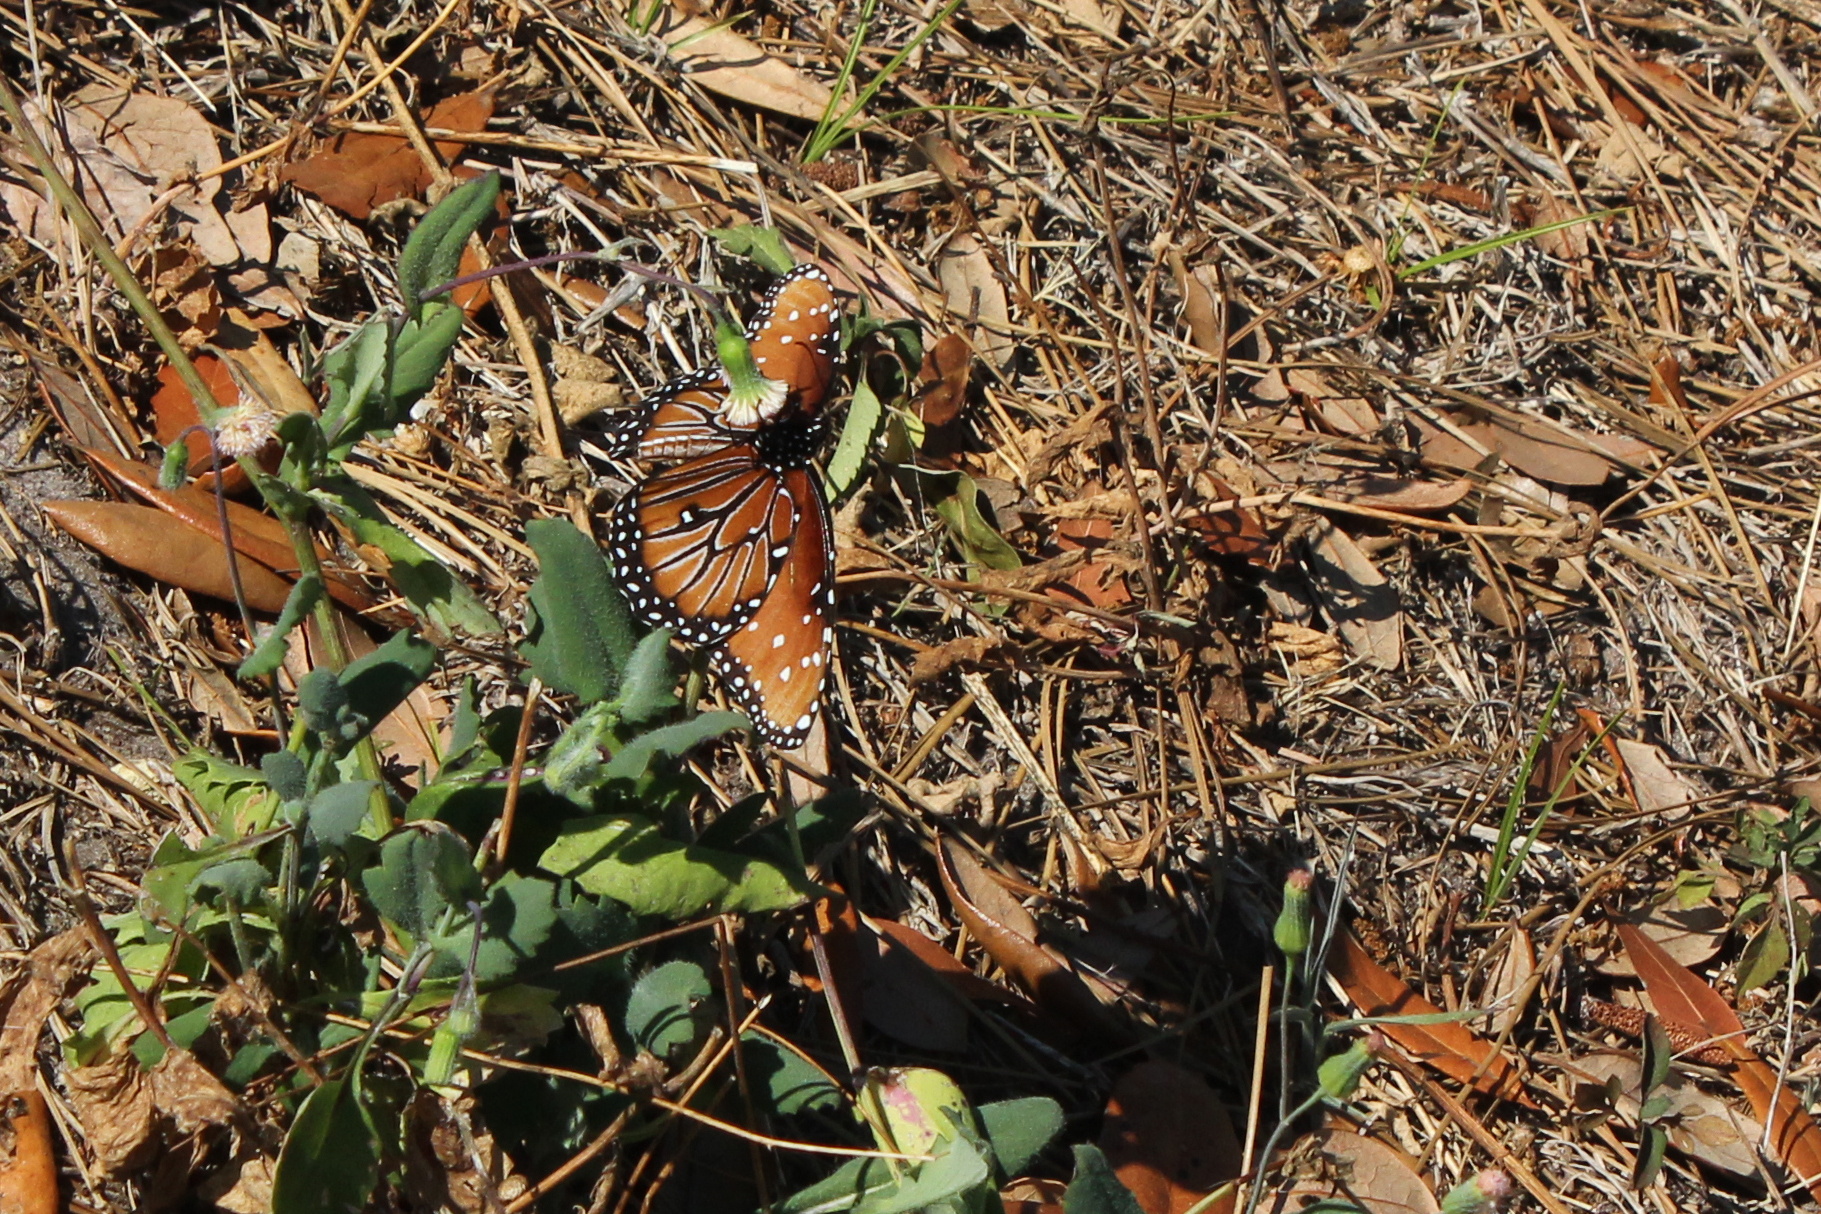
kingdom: Animalia
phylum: Arthropoda
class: Insecta
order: Lepidoptera
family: Nymphalidae
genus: Danaus
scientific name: Danaus gilippus
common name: Queen
